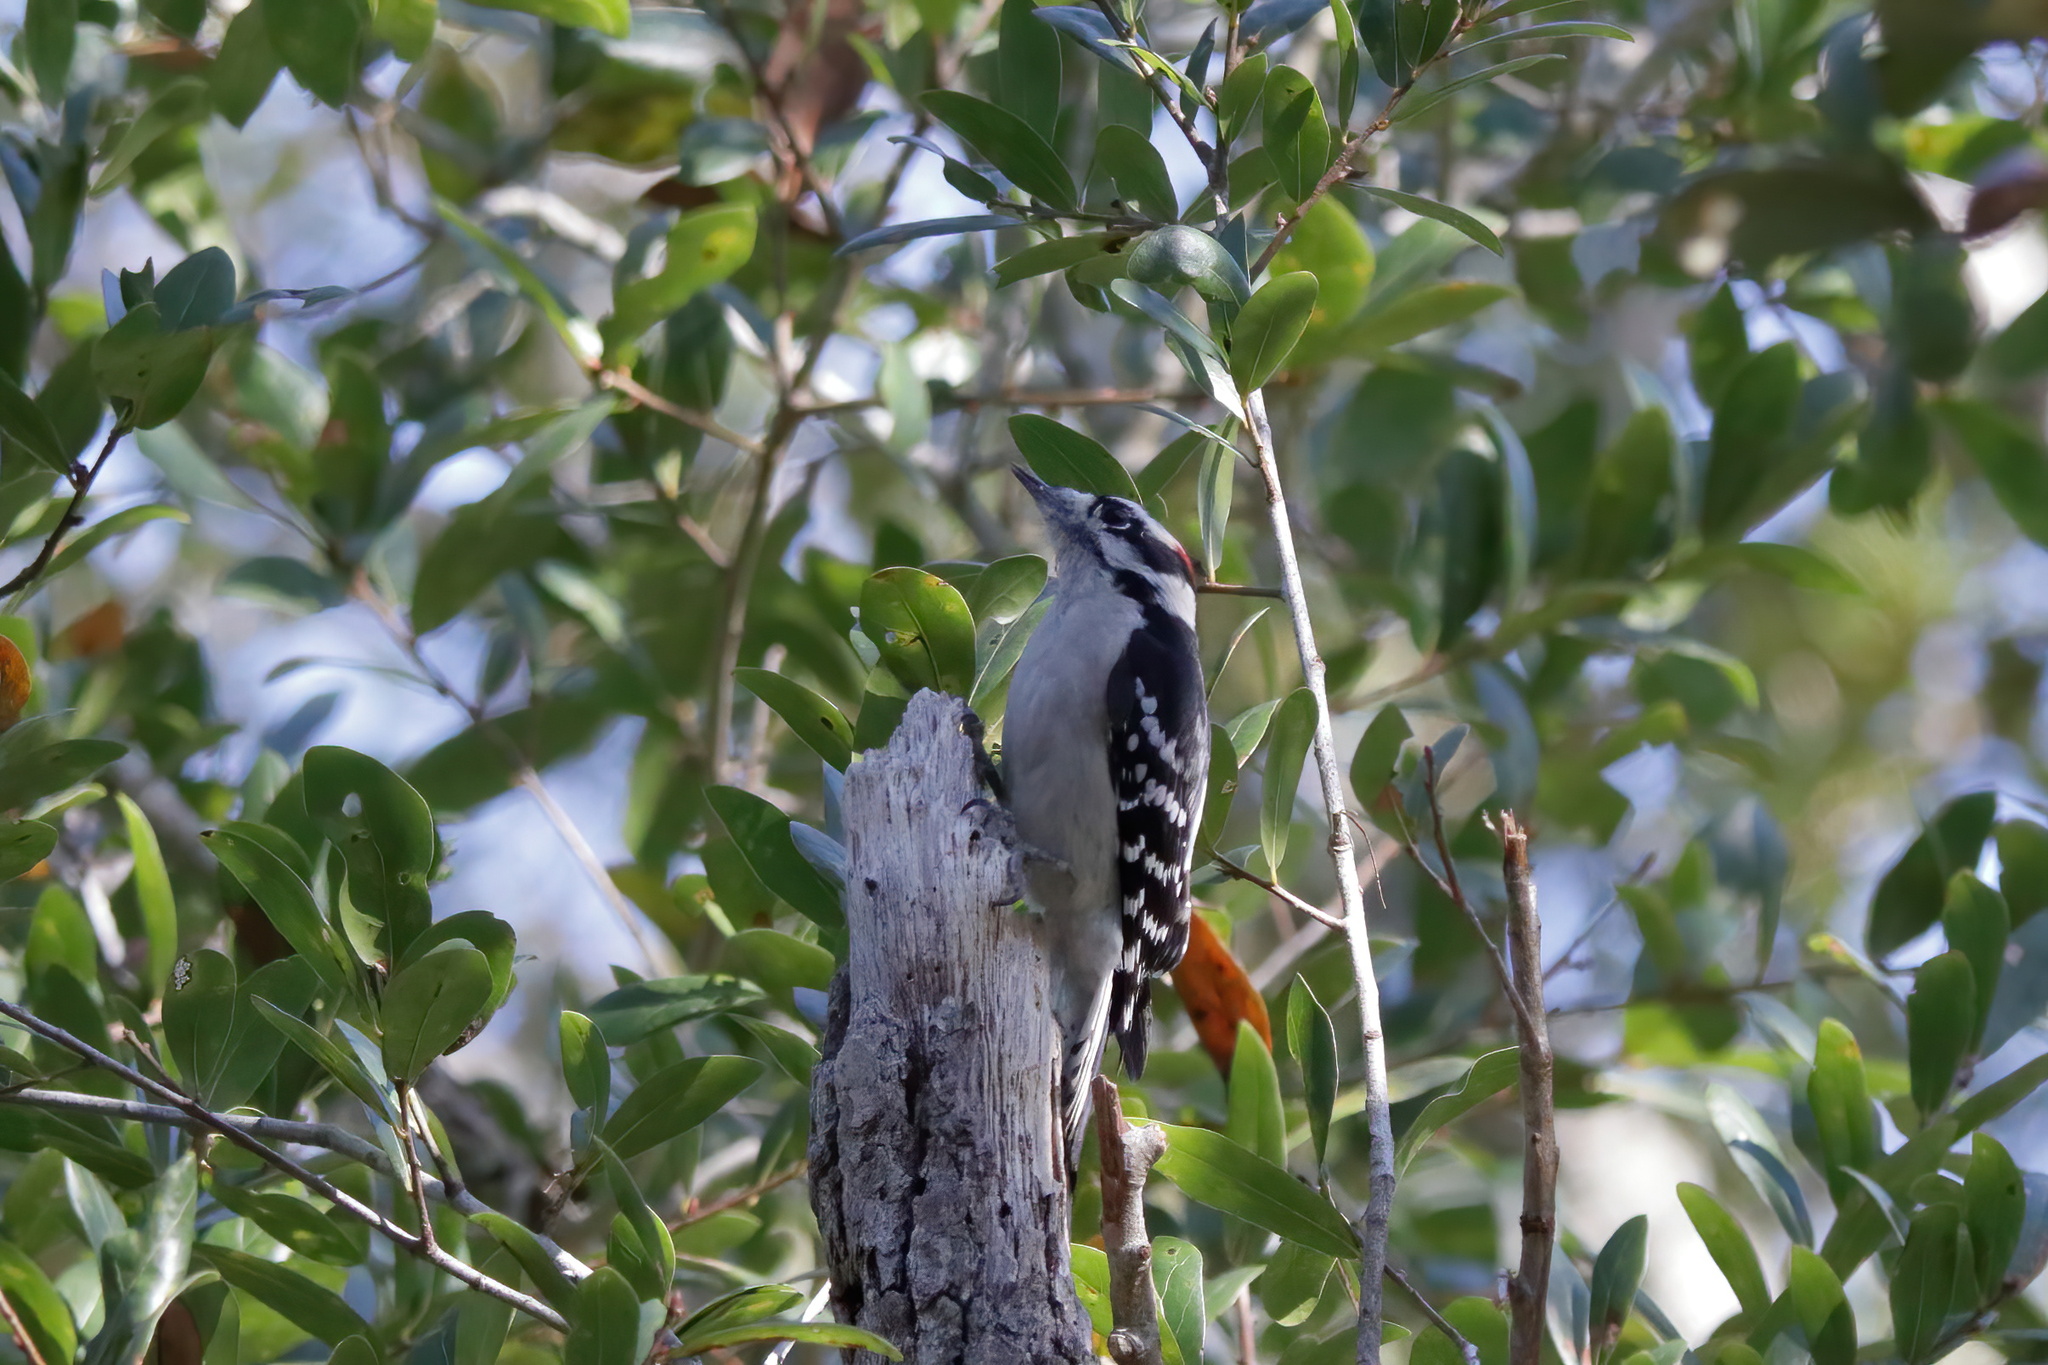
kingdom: Animalia
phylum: Chordata
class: Aves
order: Piciformes
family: Picidae
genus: Dryobates
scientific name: Dryobates pubescens
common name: Downy woodpecker
